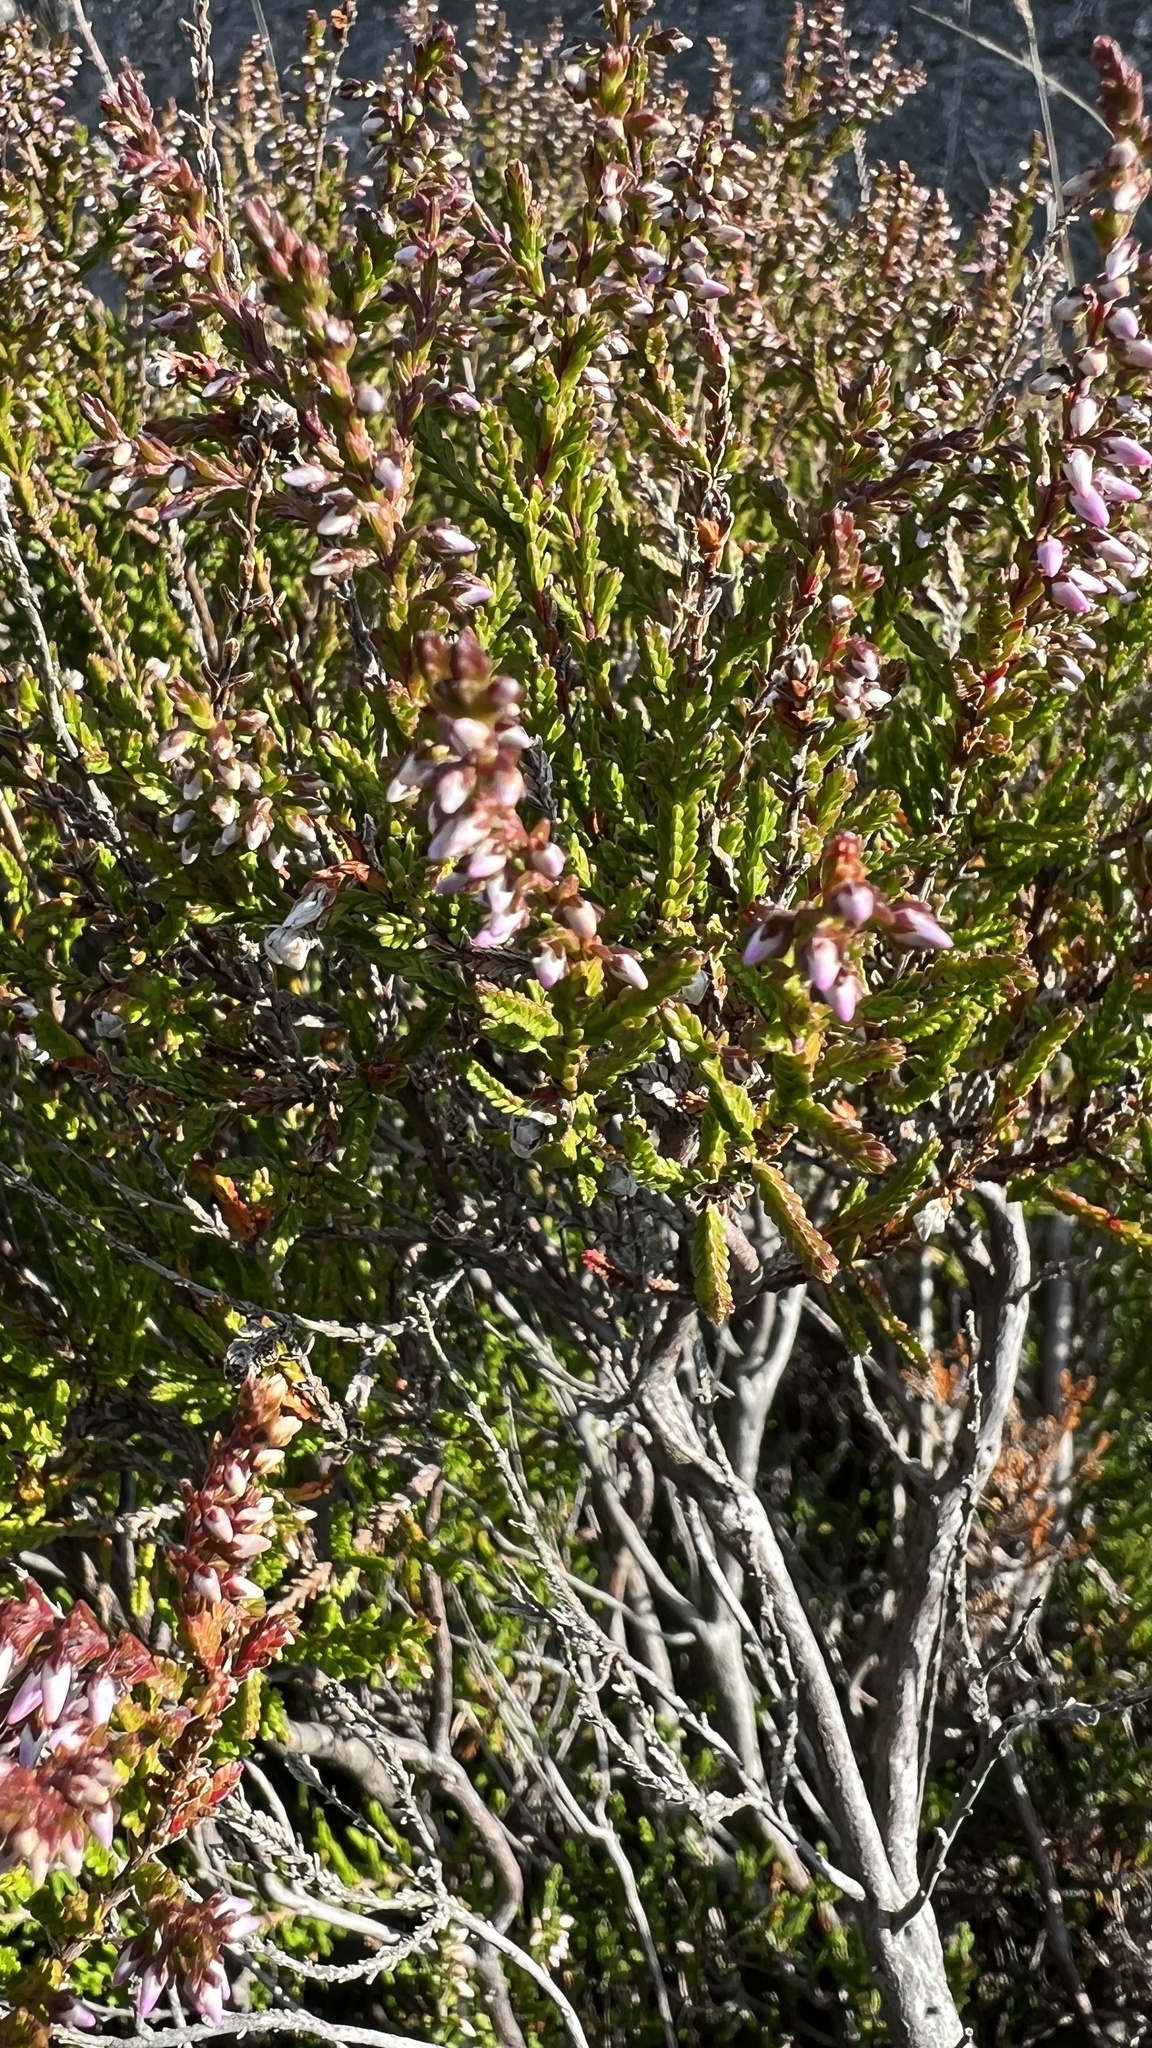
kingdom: Plantae
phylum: Tracheophyta
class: Magnoliopsida
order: Ericales
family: Ericaceae
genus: Calluna
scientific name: Calluna vulgaris
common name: Heather
